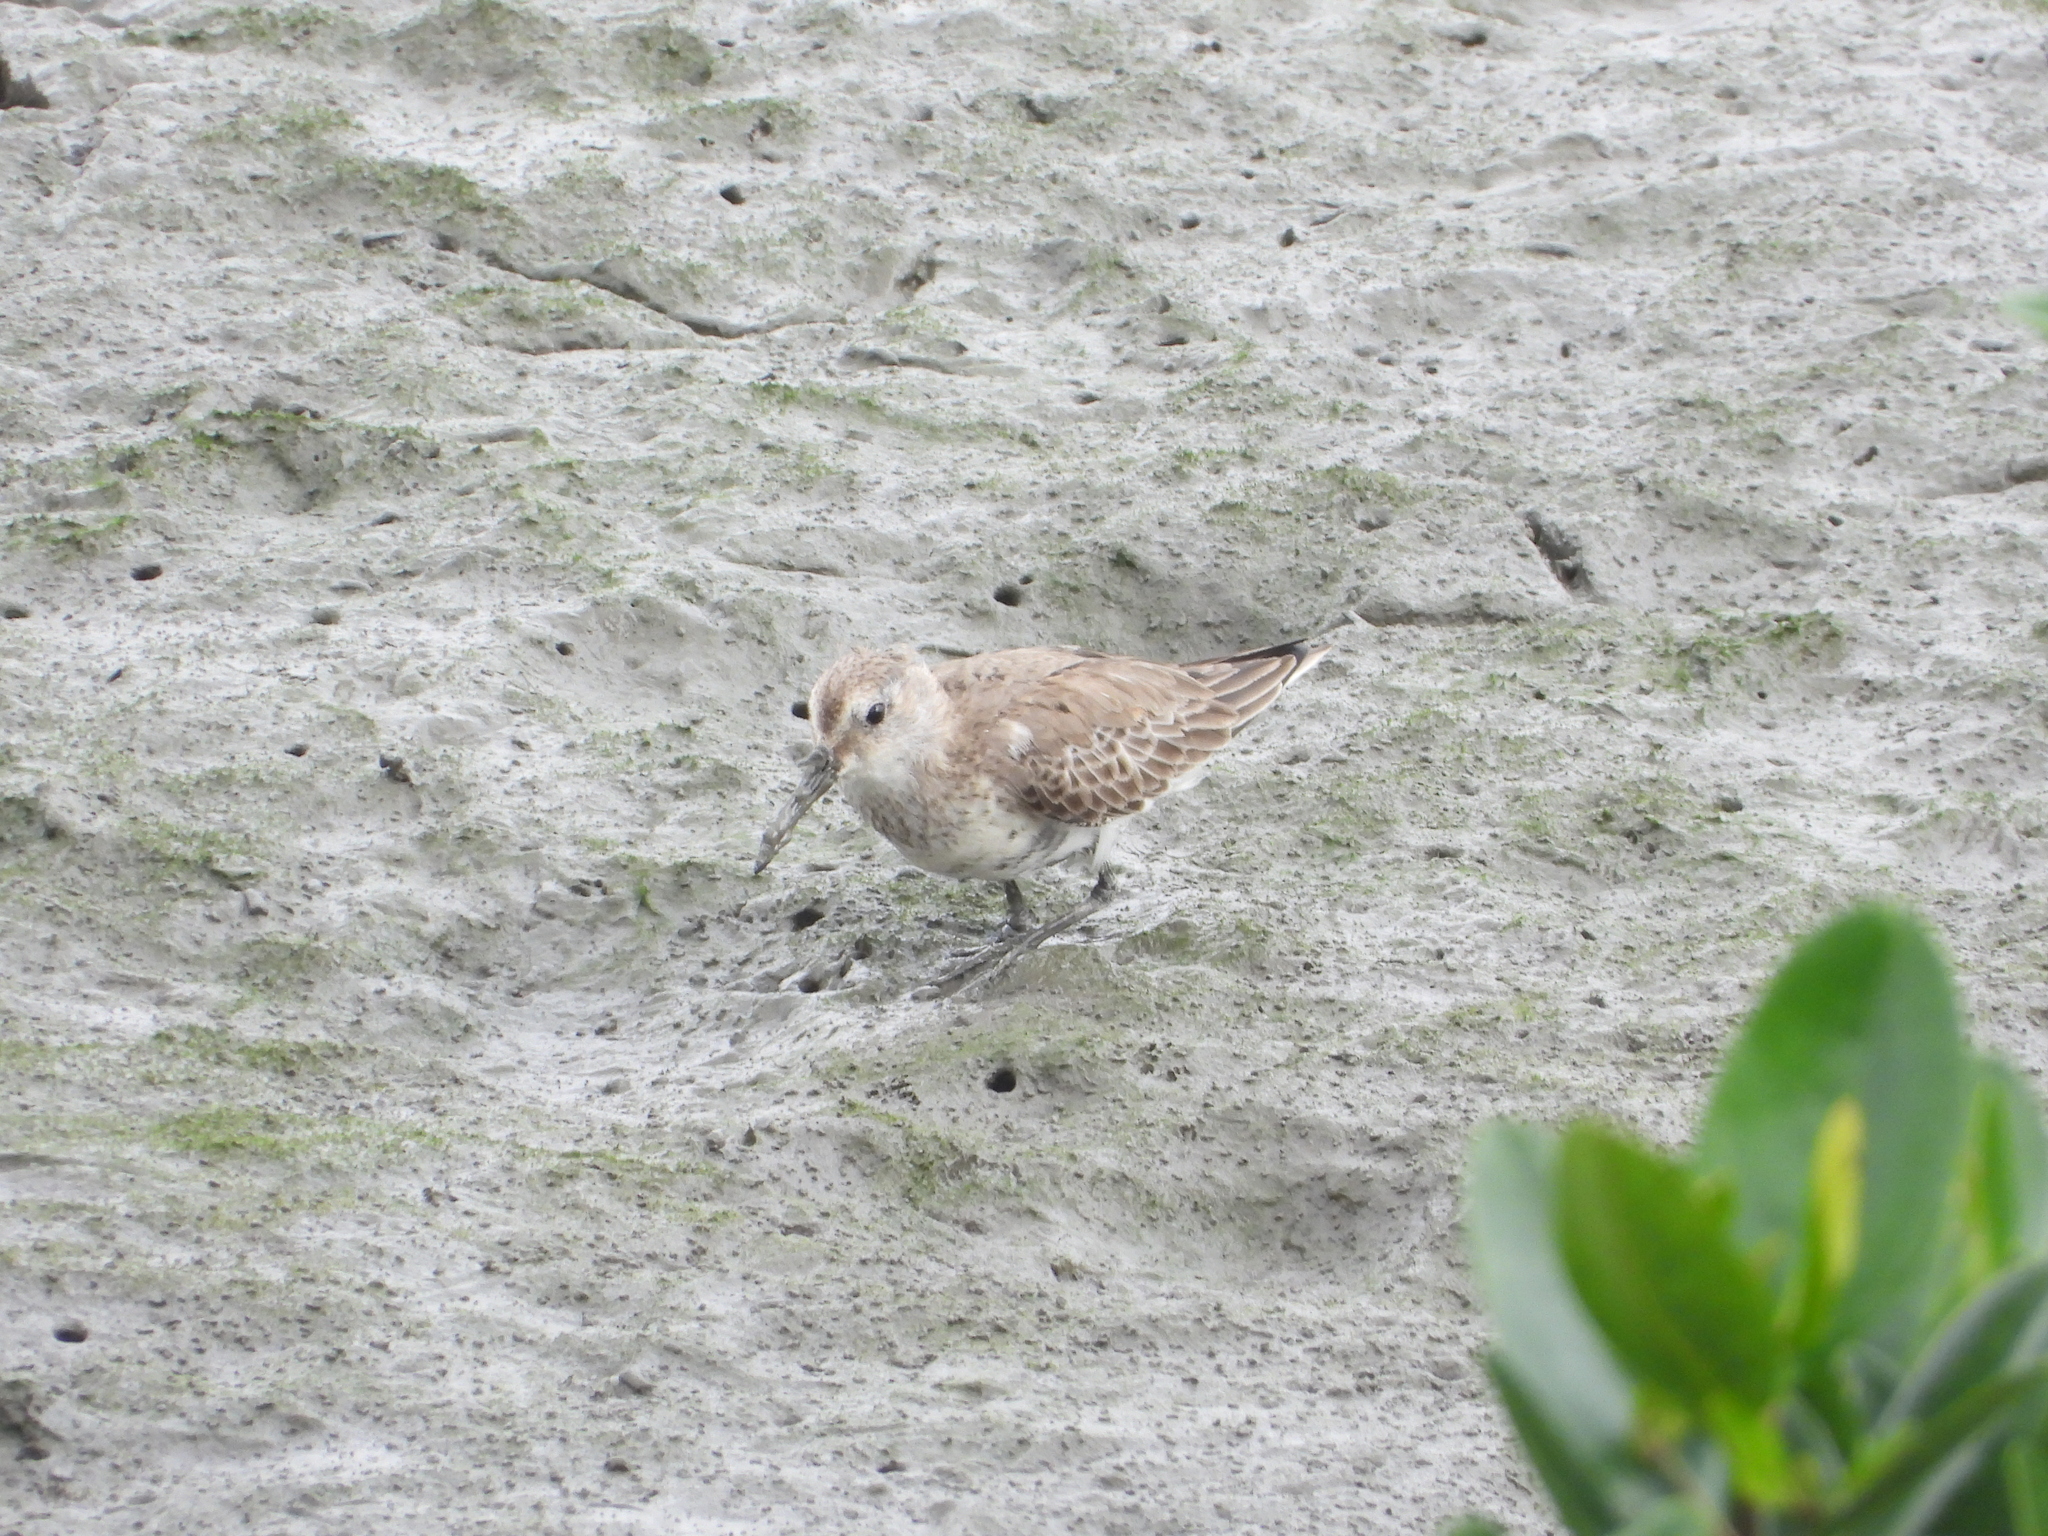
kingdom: Animalia
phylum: Chordata
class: Aves
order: Charadriiformes
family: Scolopacidae
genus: Calidris
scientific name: Calidris alpina
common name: Dunlin
